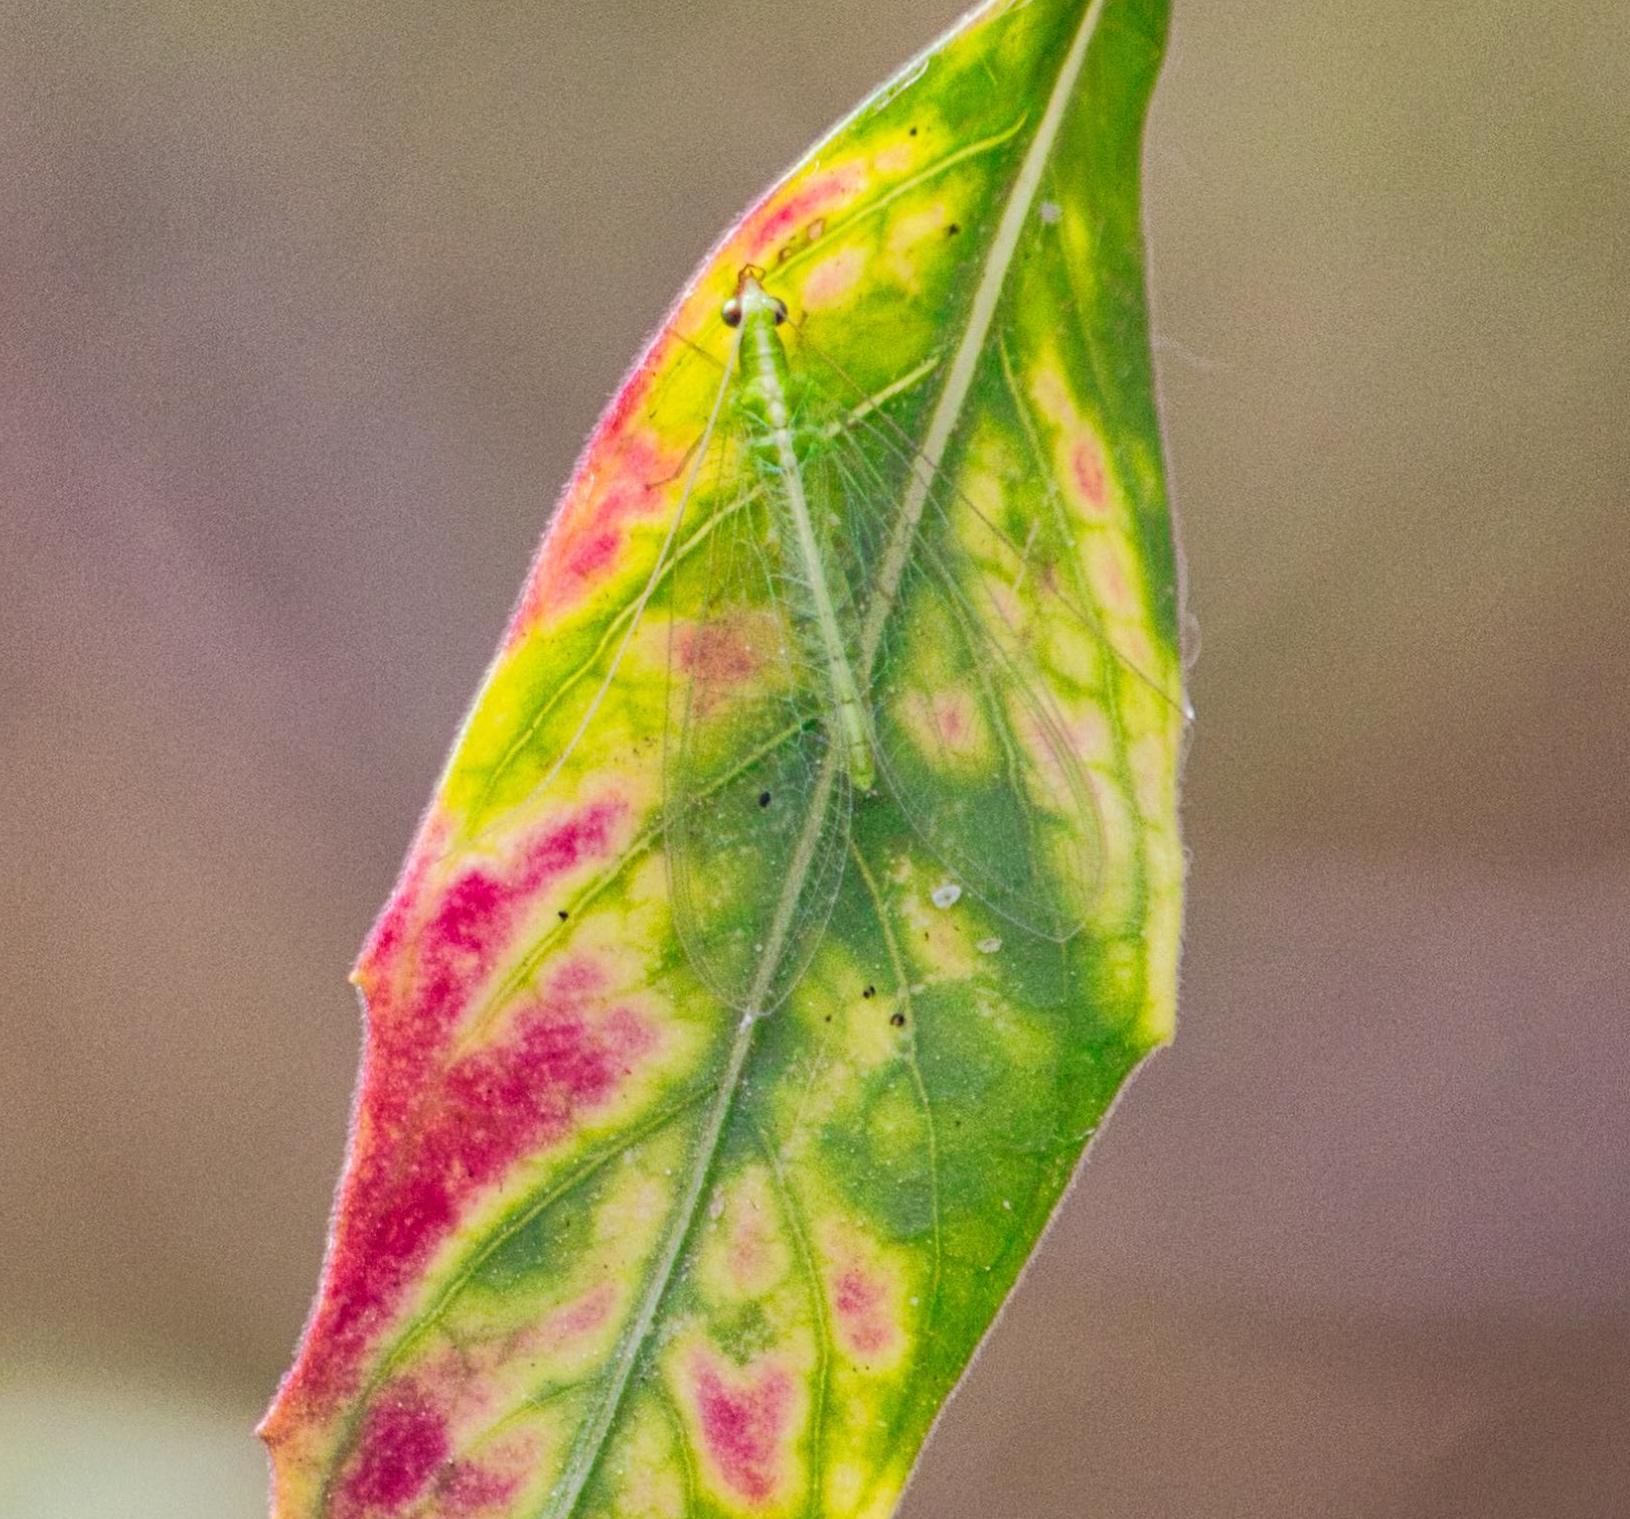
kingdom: Animalia
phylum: Arthropoda
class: Insecta
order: Neuroptera
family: Chrysopidae
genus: Chrysoperla
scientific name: Chrysoperla
